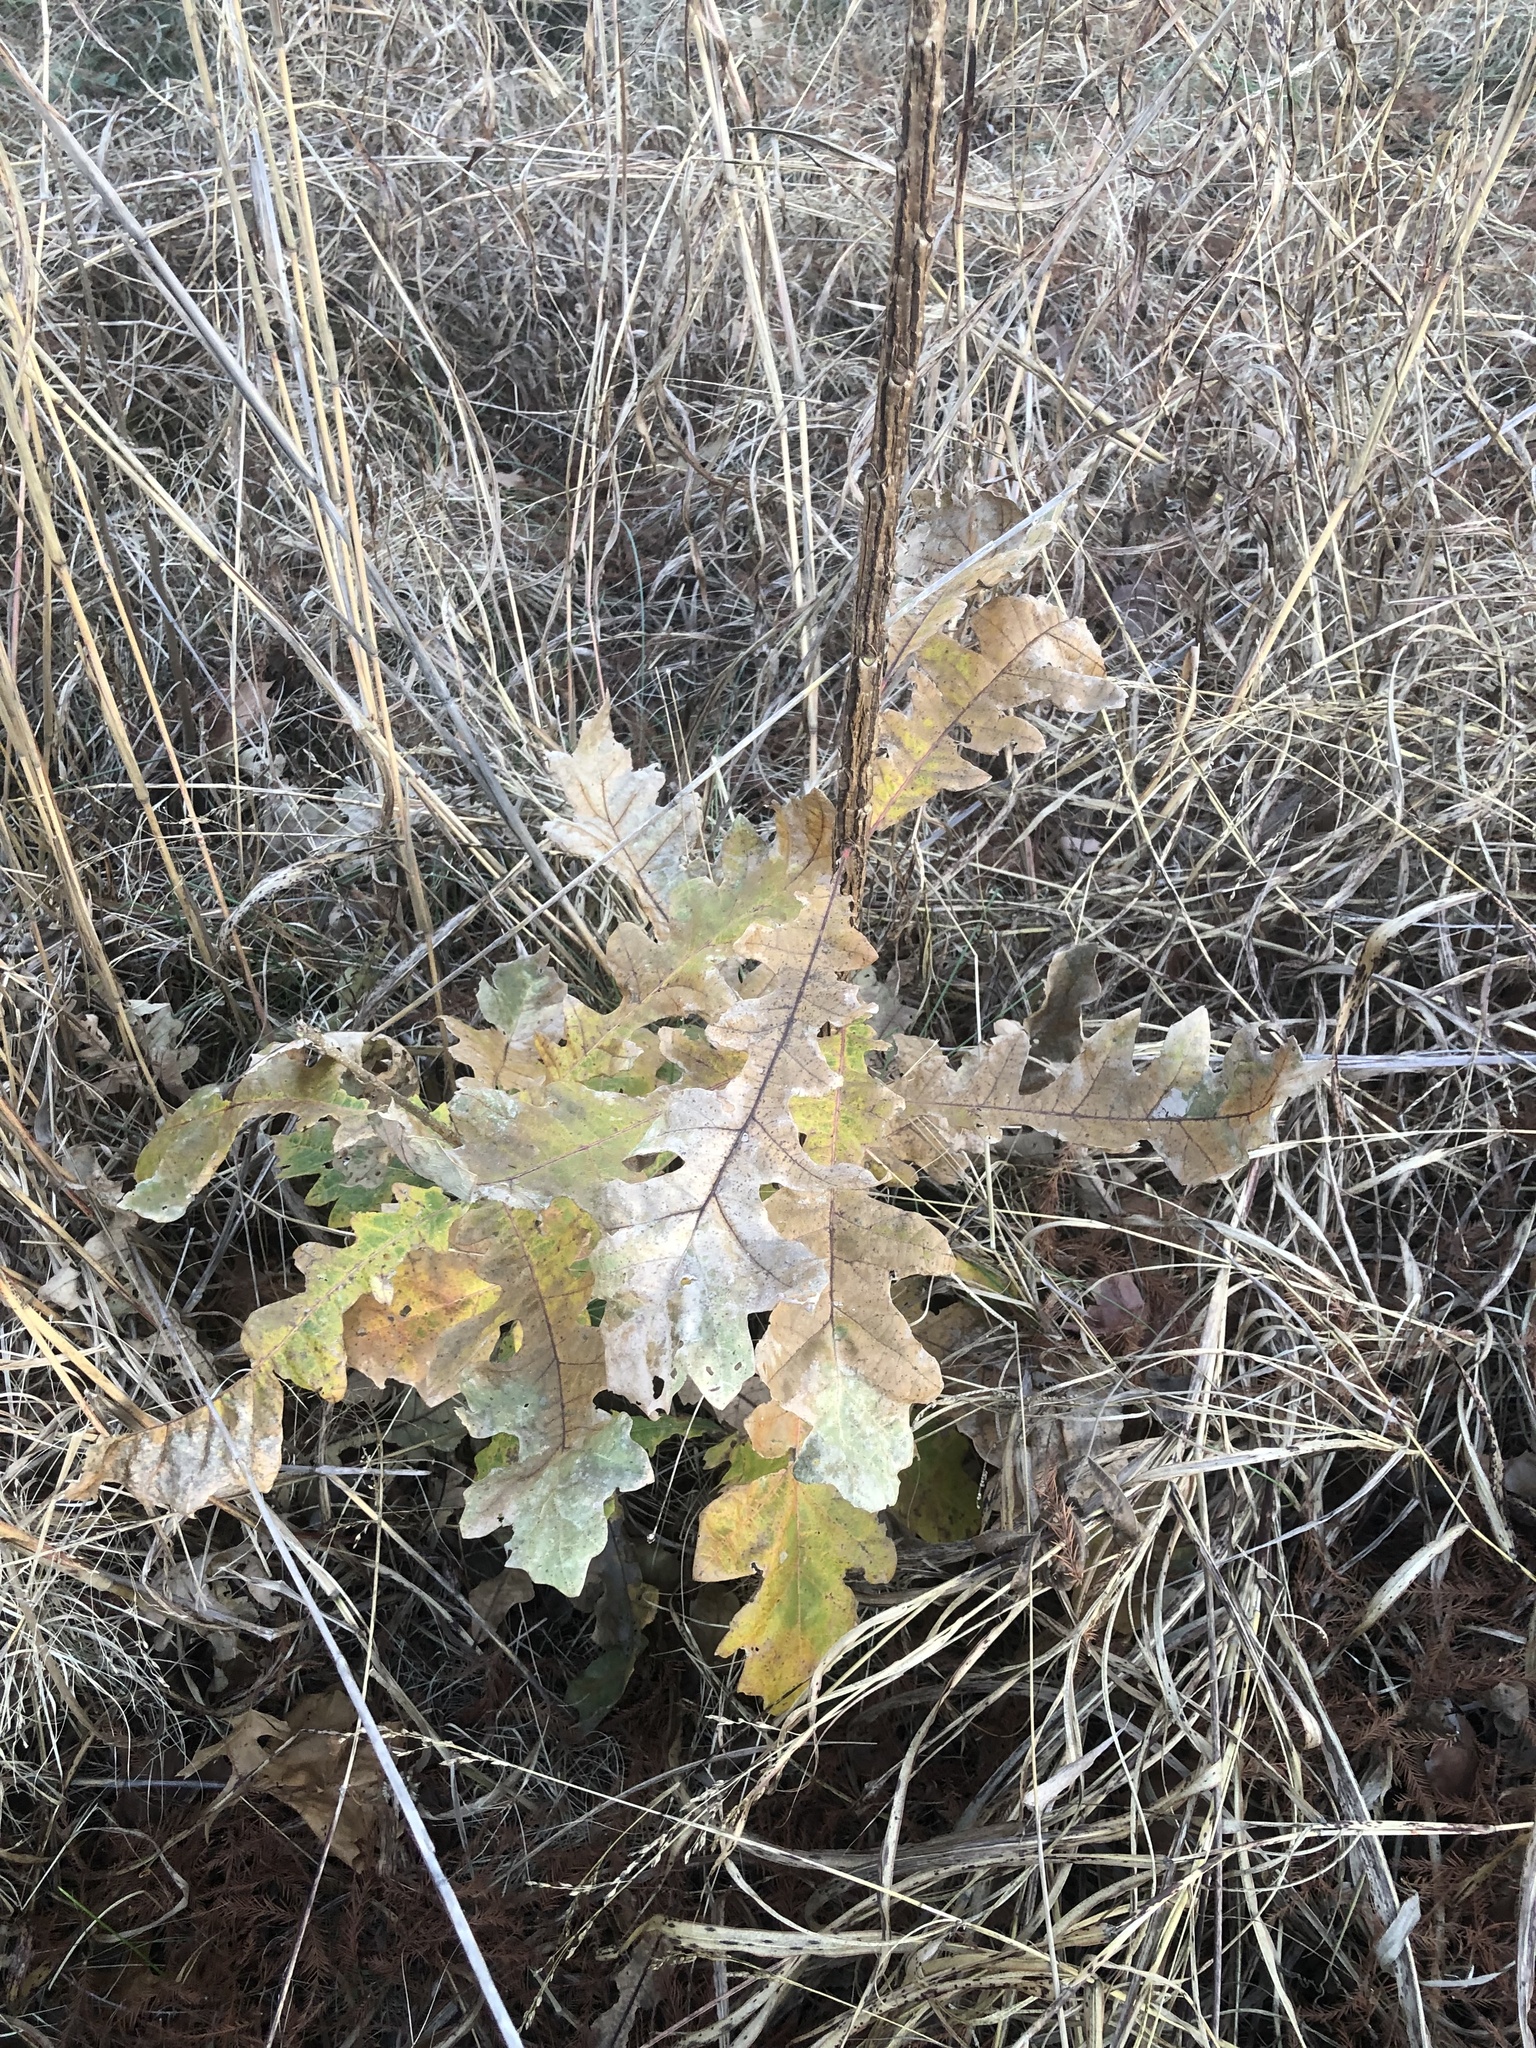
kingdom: Plantae
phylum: Tracheophyta
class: Magnoliopsida
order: Fagales
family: Fagaceae
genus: Quercus
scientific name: Quercus macrocarpa
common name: Bur oak
